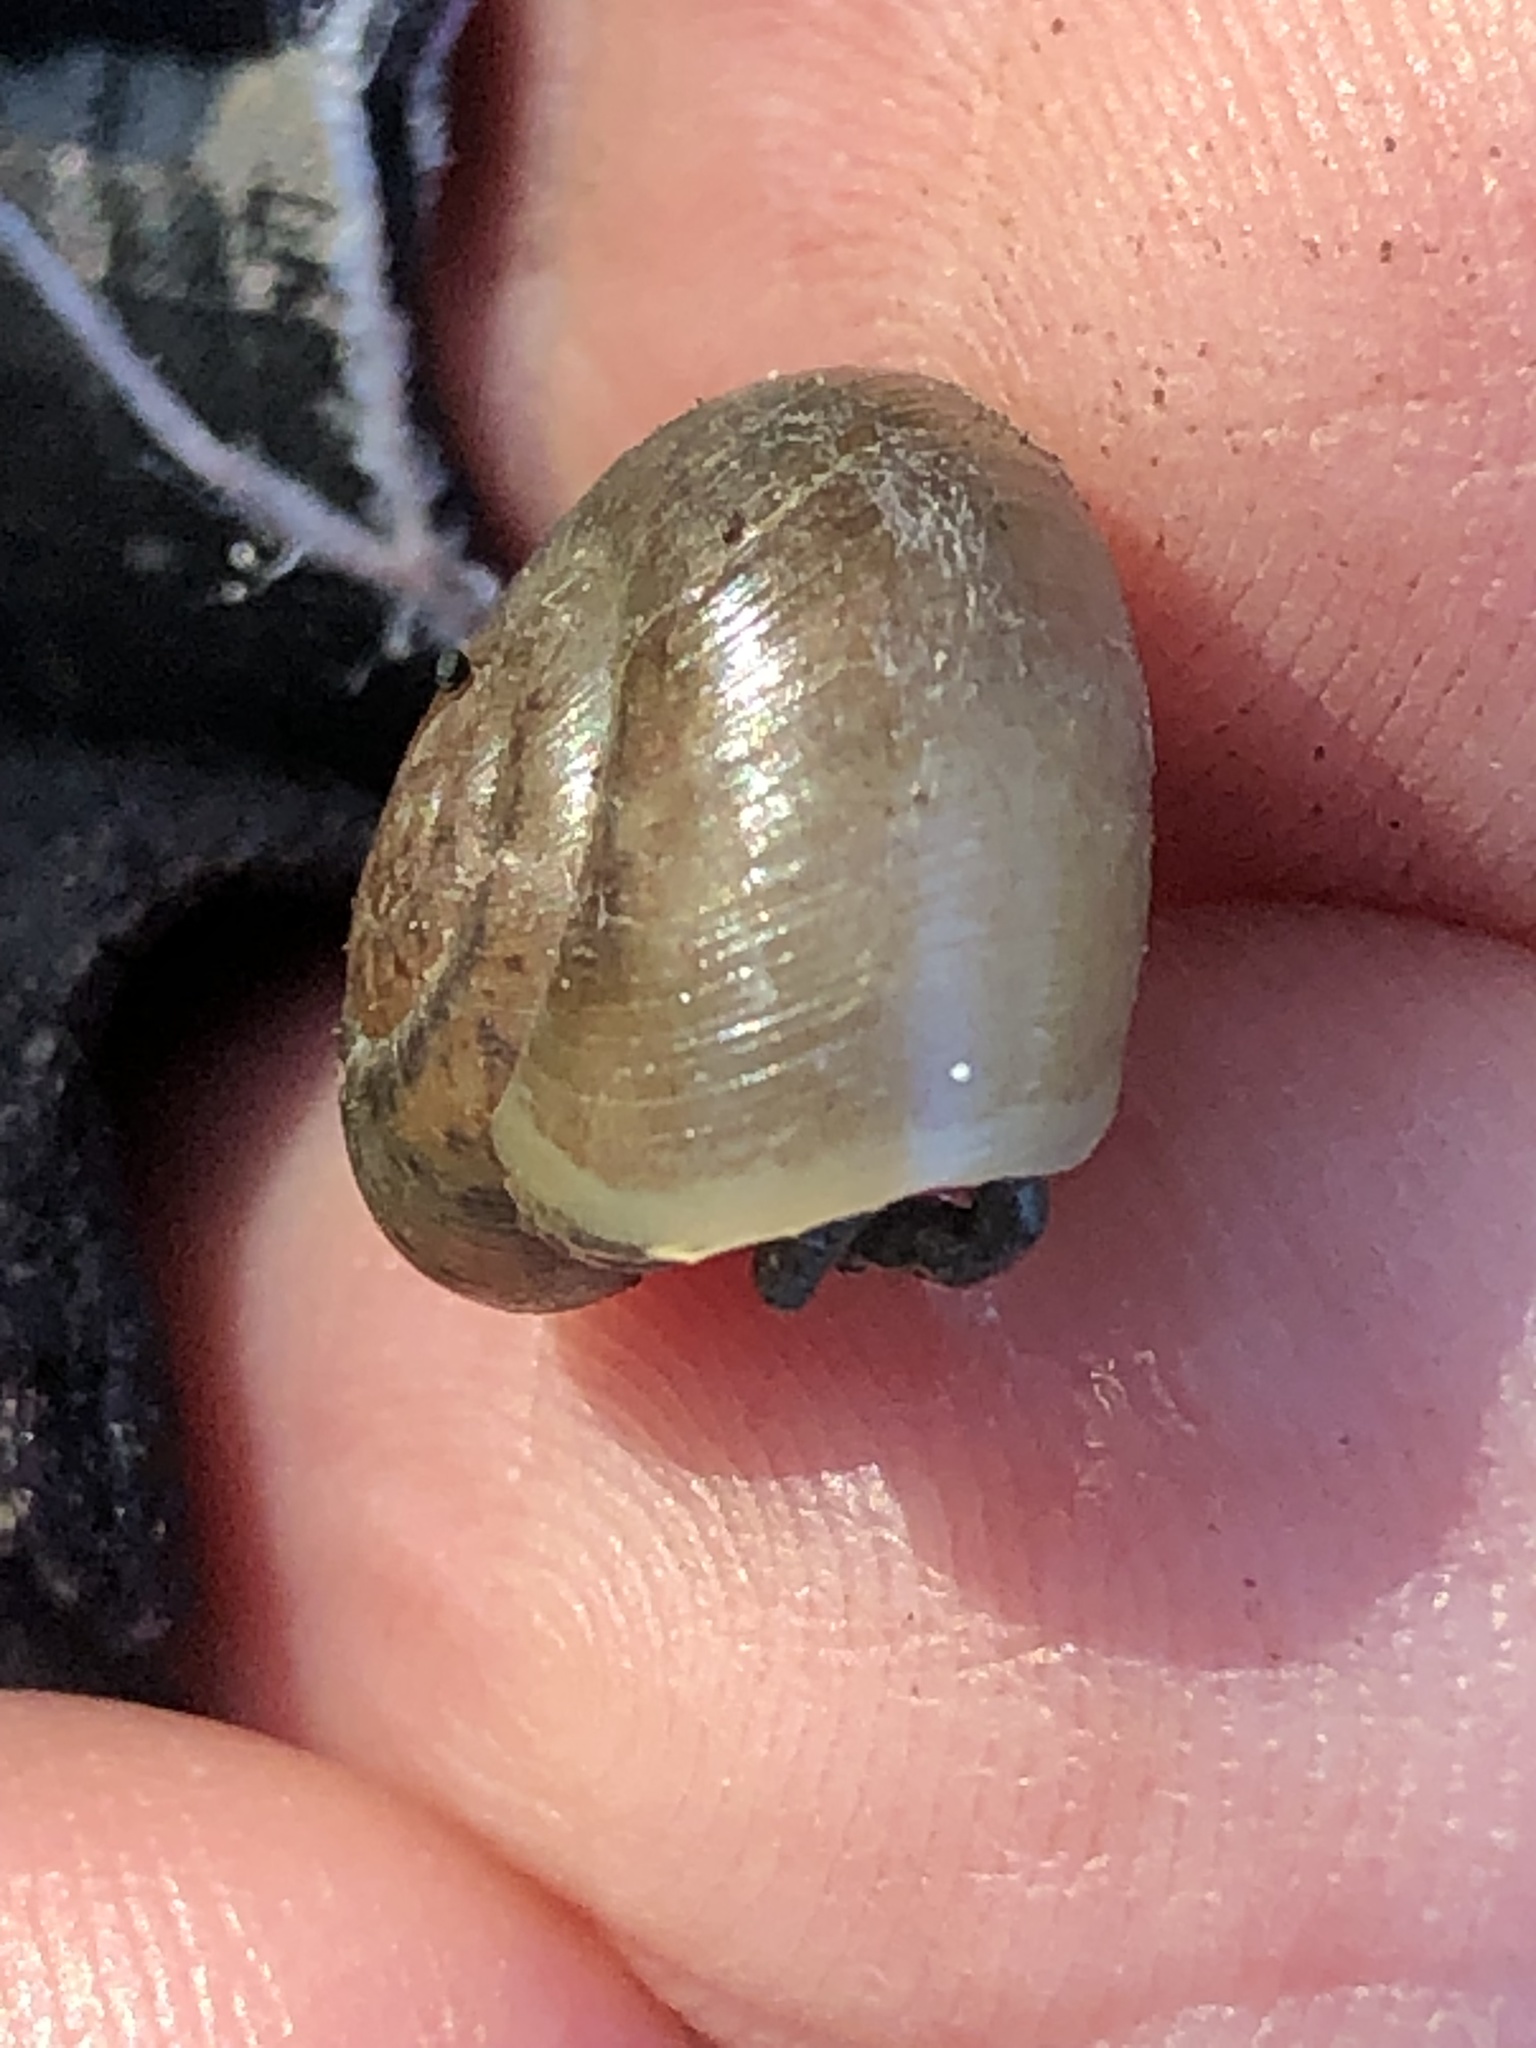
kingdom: Animalia
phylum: Mollusca
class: Gastropoda
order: Stylommatophora
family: Haplotrematidae
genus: Haplotrema
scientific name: Haplotrema minimum
